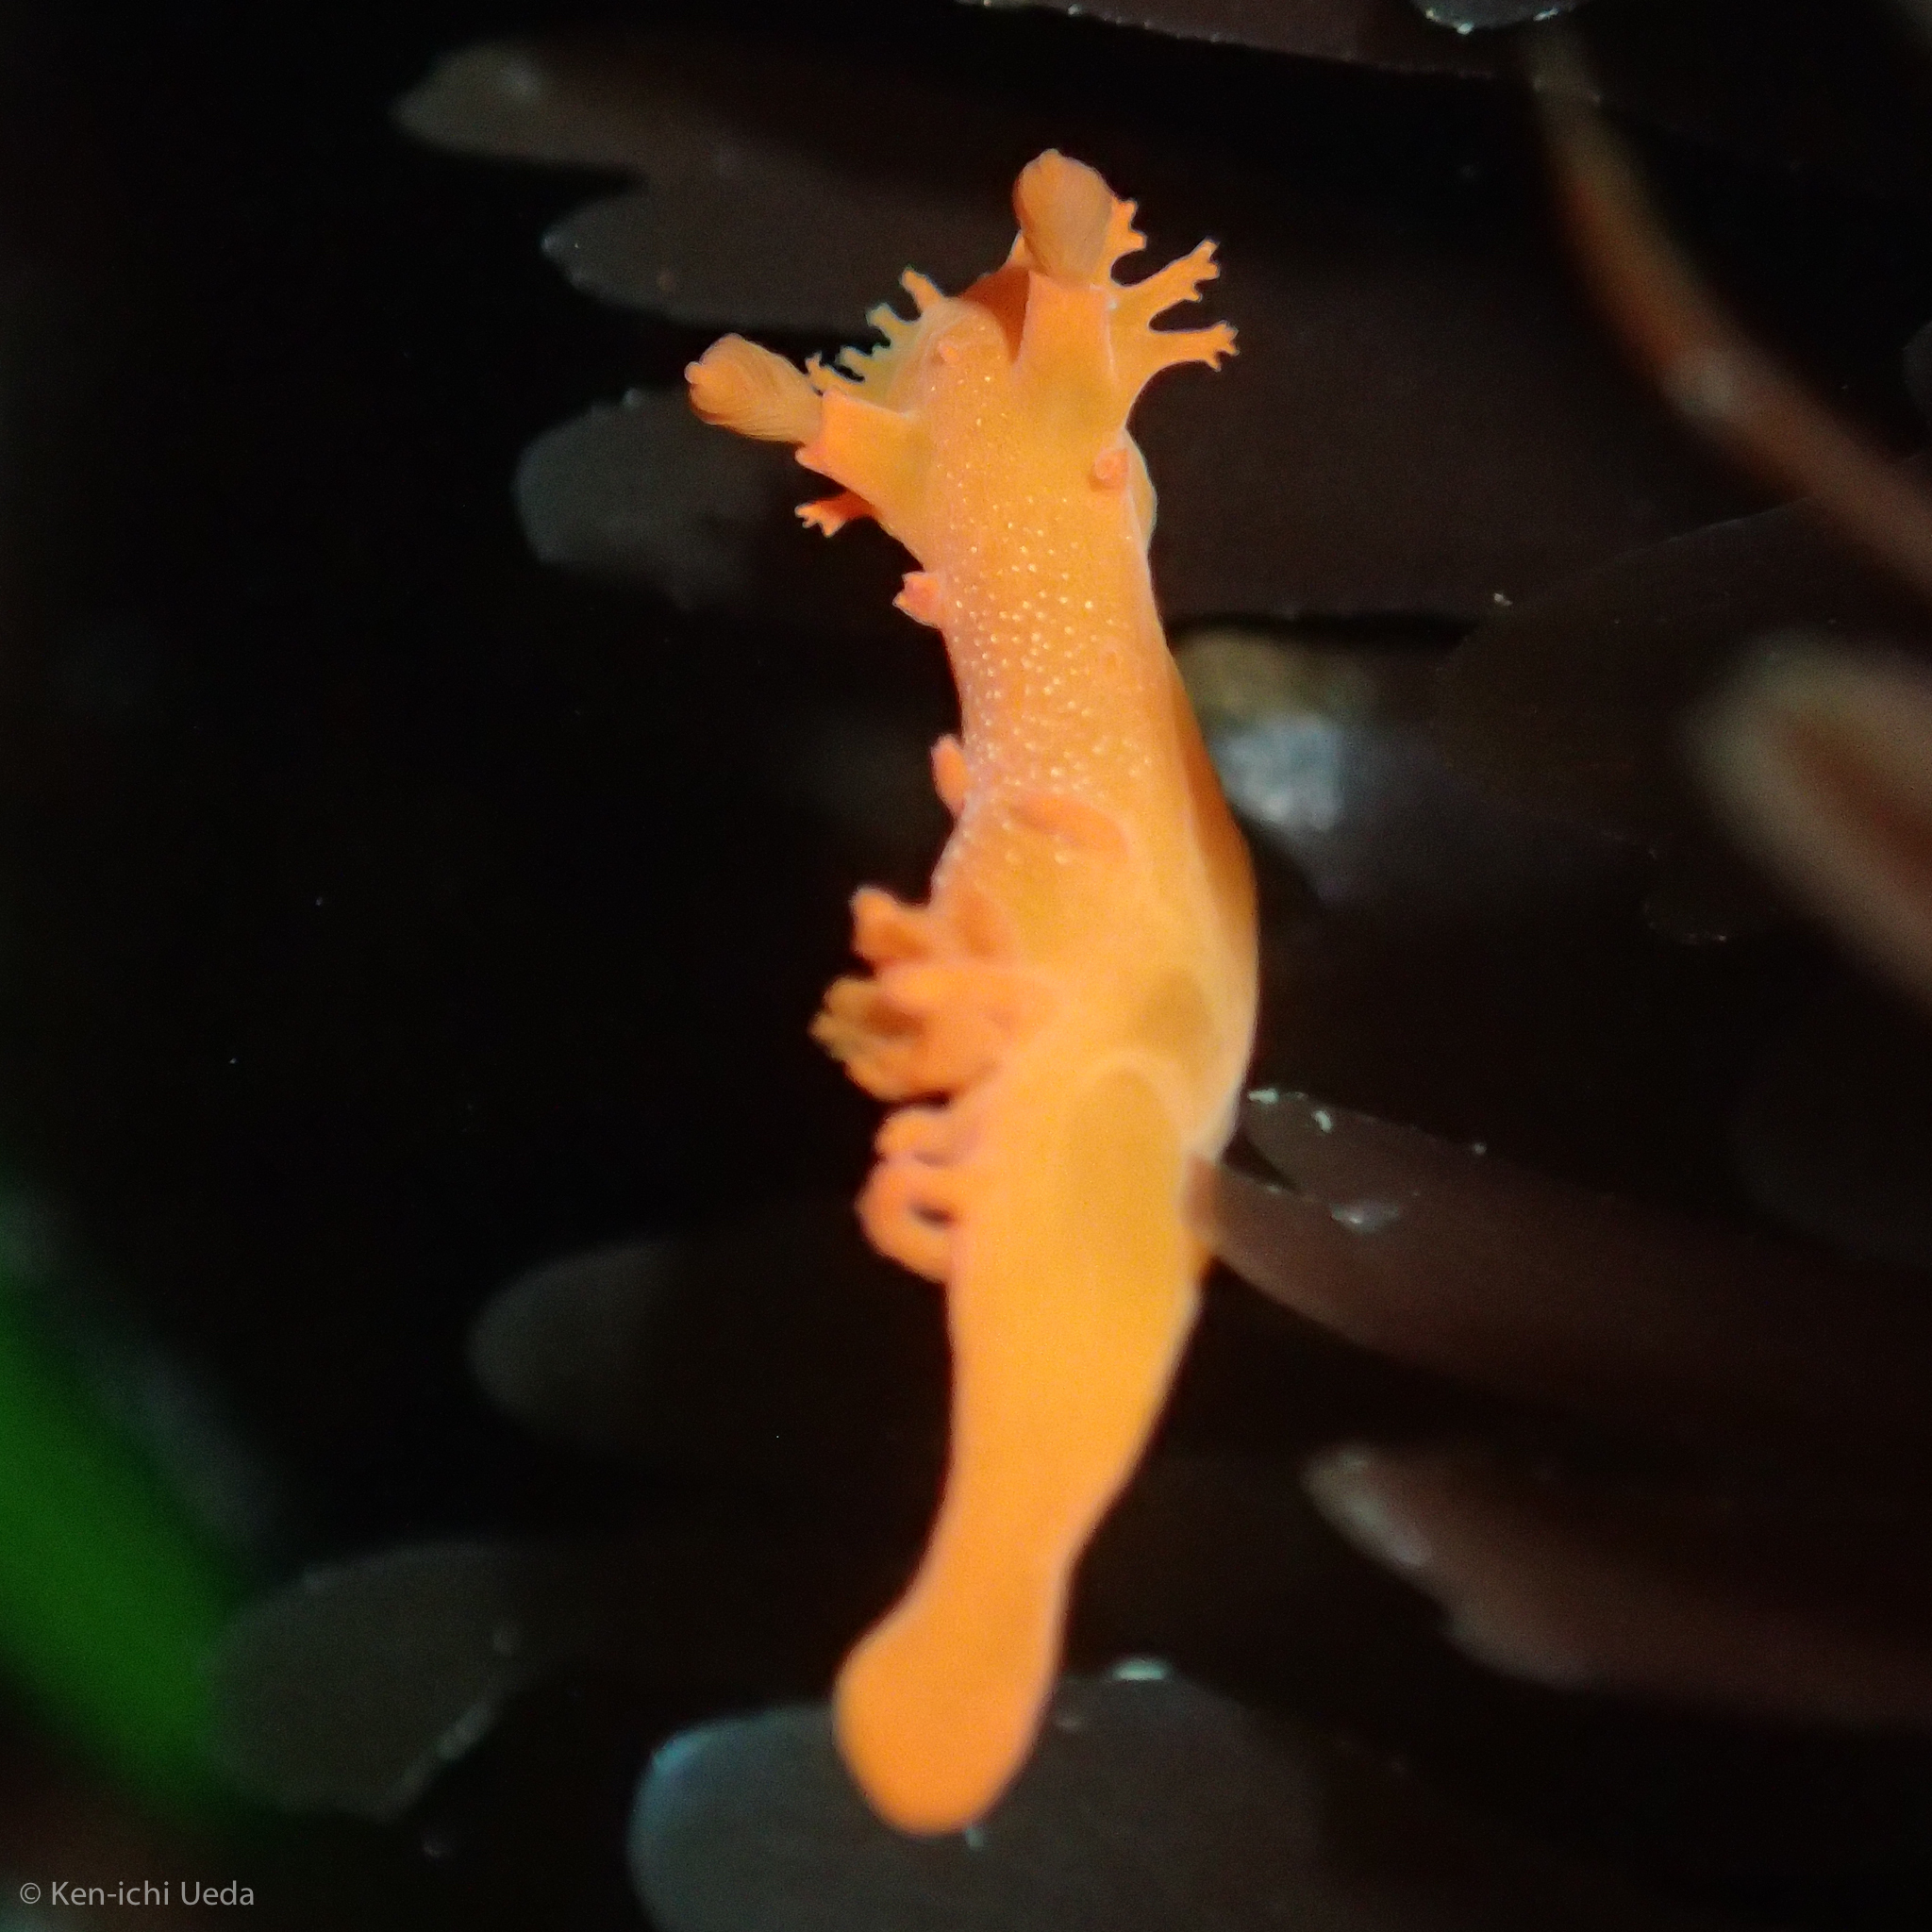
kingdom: Animalia
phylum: Mollusca
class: Gastropoda
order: Nudibranchia
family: Polyceridae
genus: Triopha
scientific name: Triopha maculata
